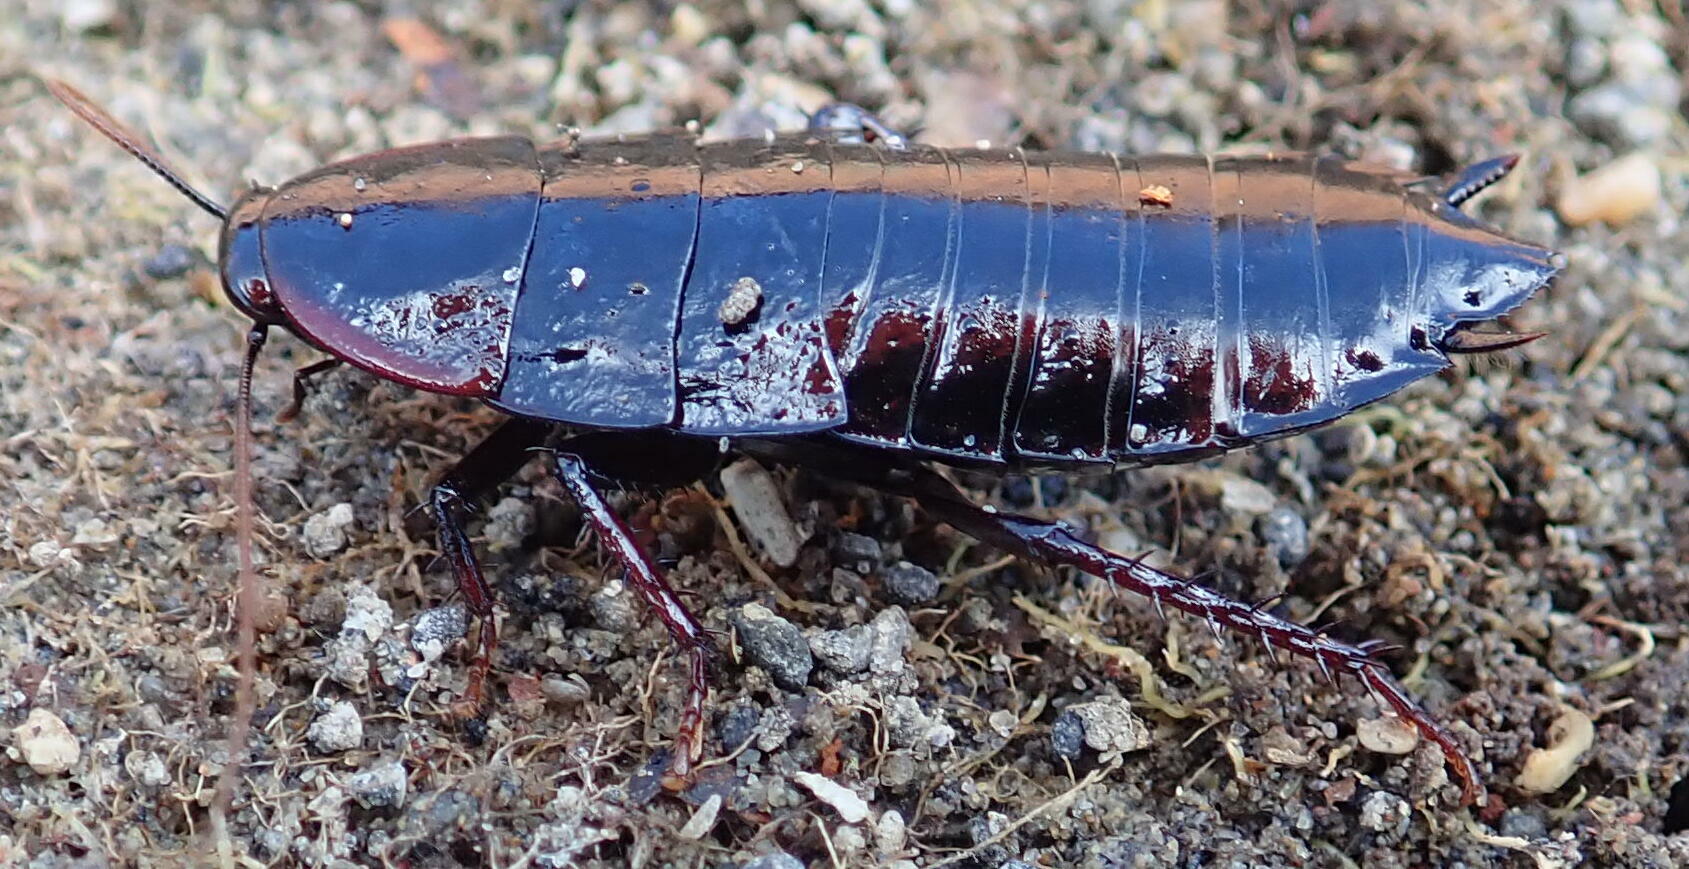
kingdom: Animalia
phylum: Arthropoda
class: Insecta
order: Blattodea
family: Blattidae
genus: Maoriblatta
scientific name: Maoriblatta novaeseelandiae
